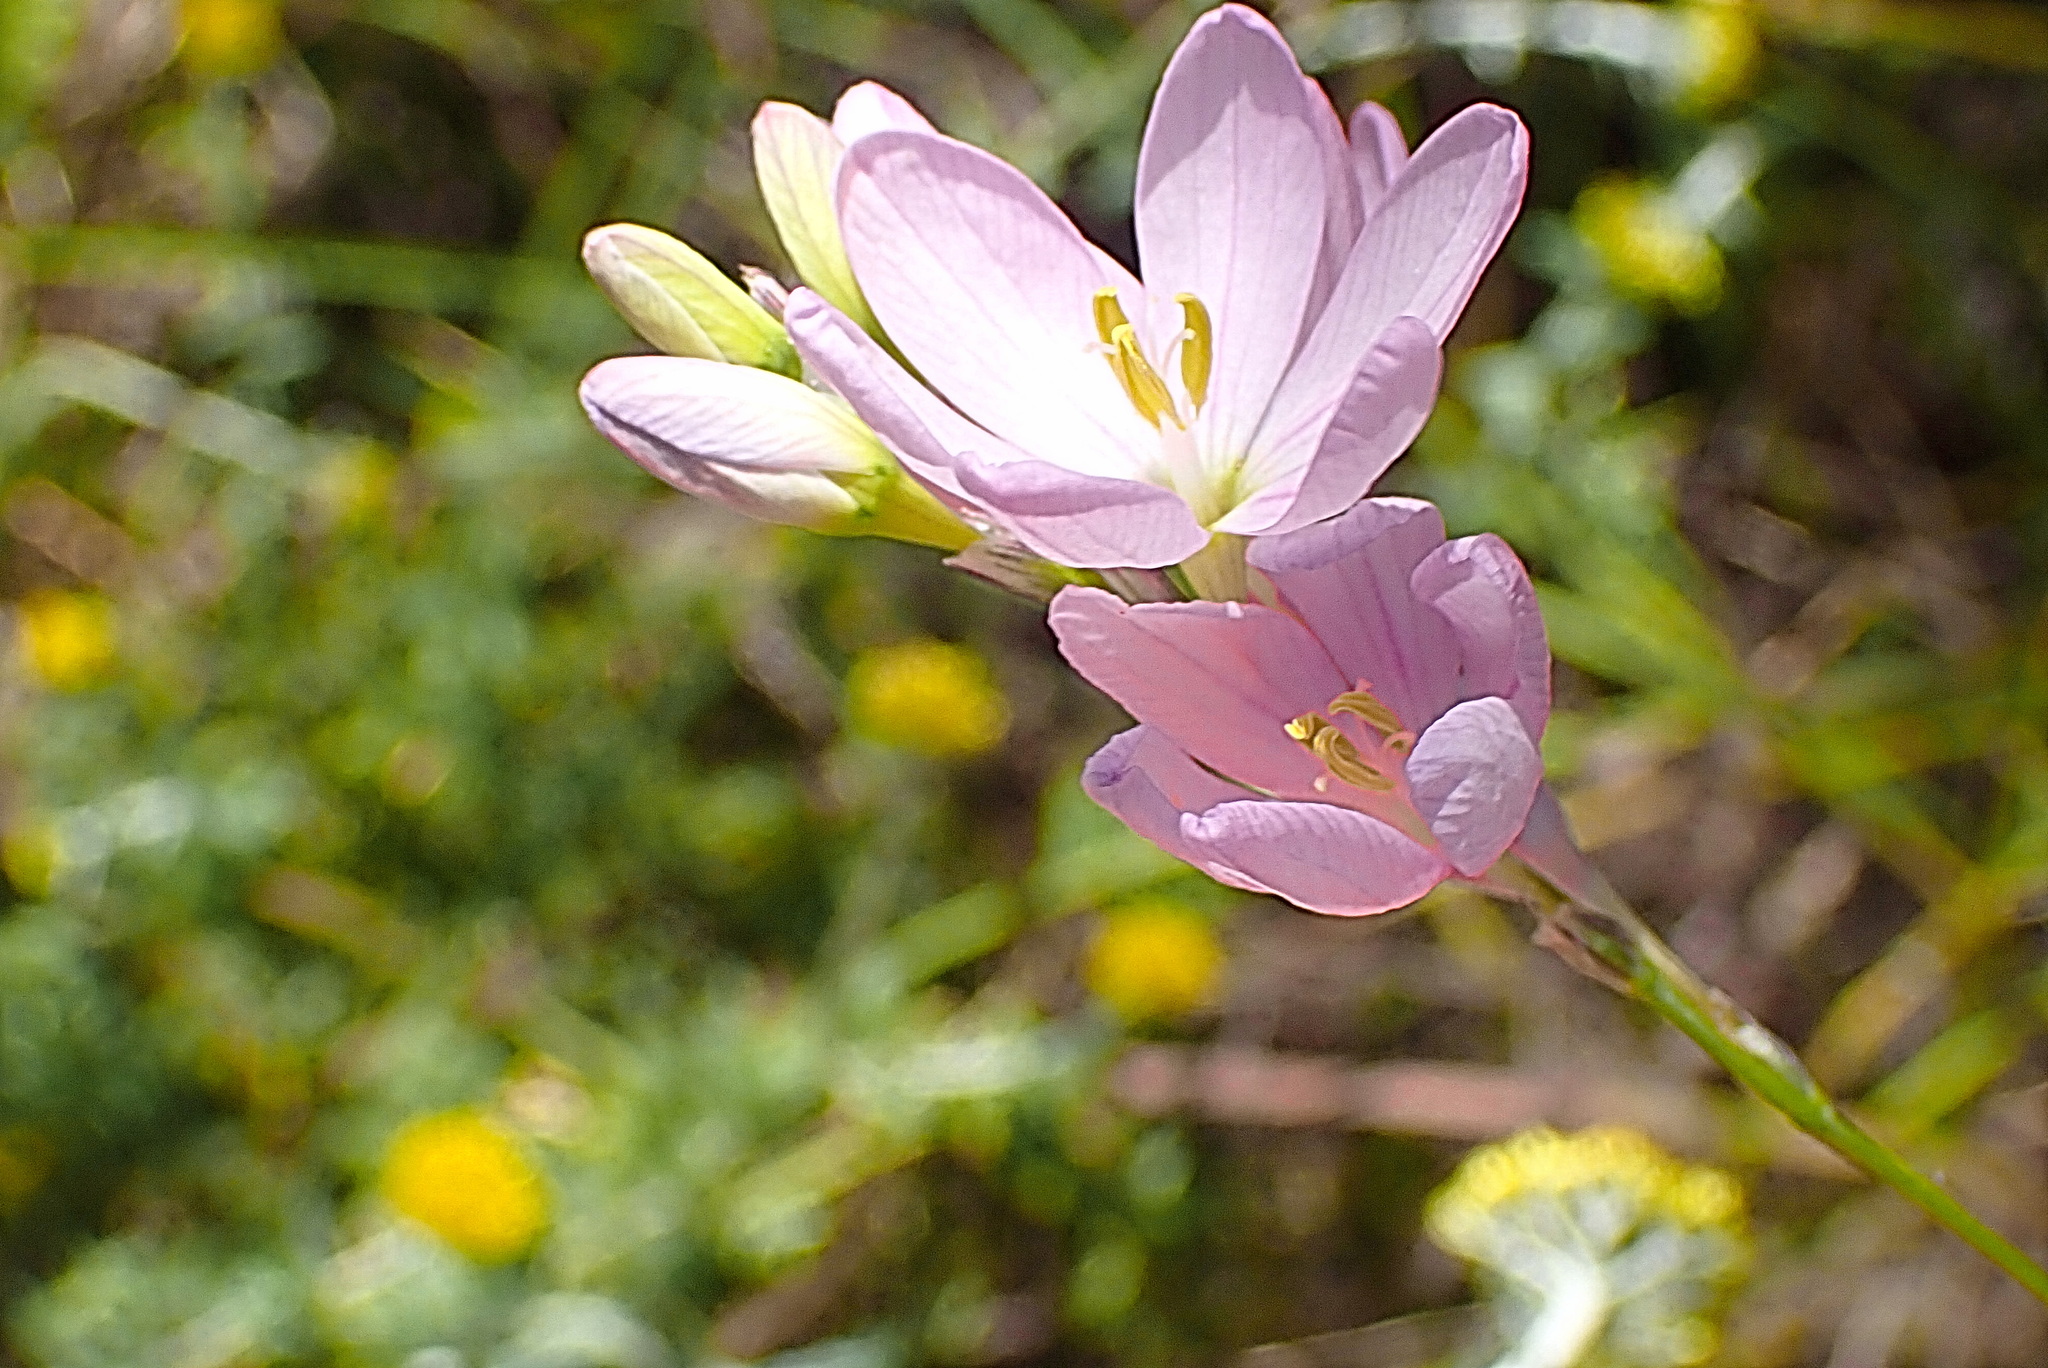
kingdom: Plantae
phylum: Tracheophyta
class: Liliopsida
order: Asparagales
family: Iridaceae
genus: Ixia
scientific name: Ixia orientalis
